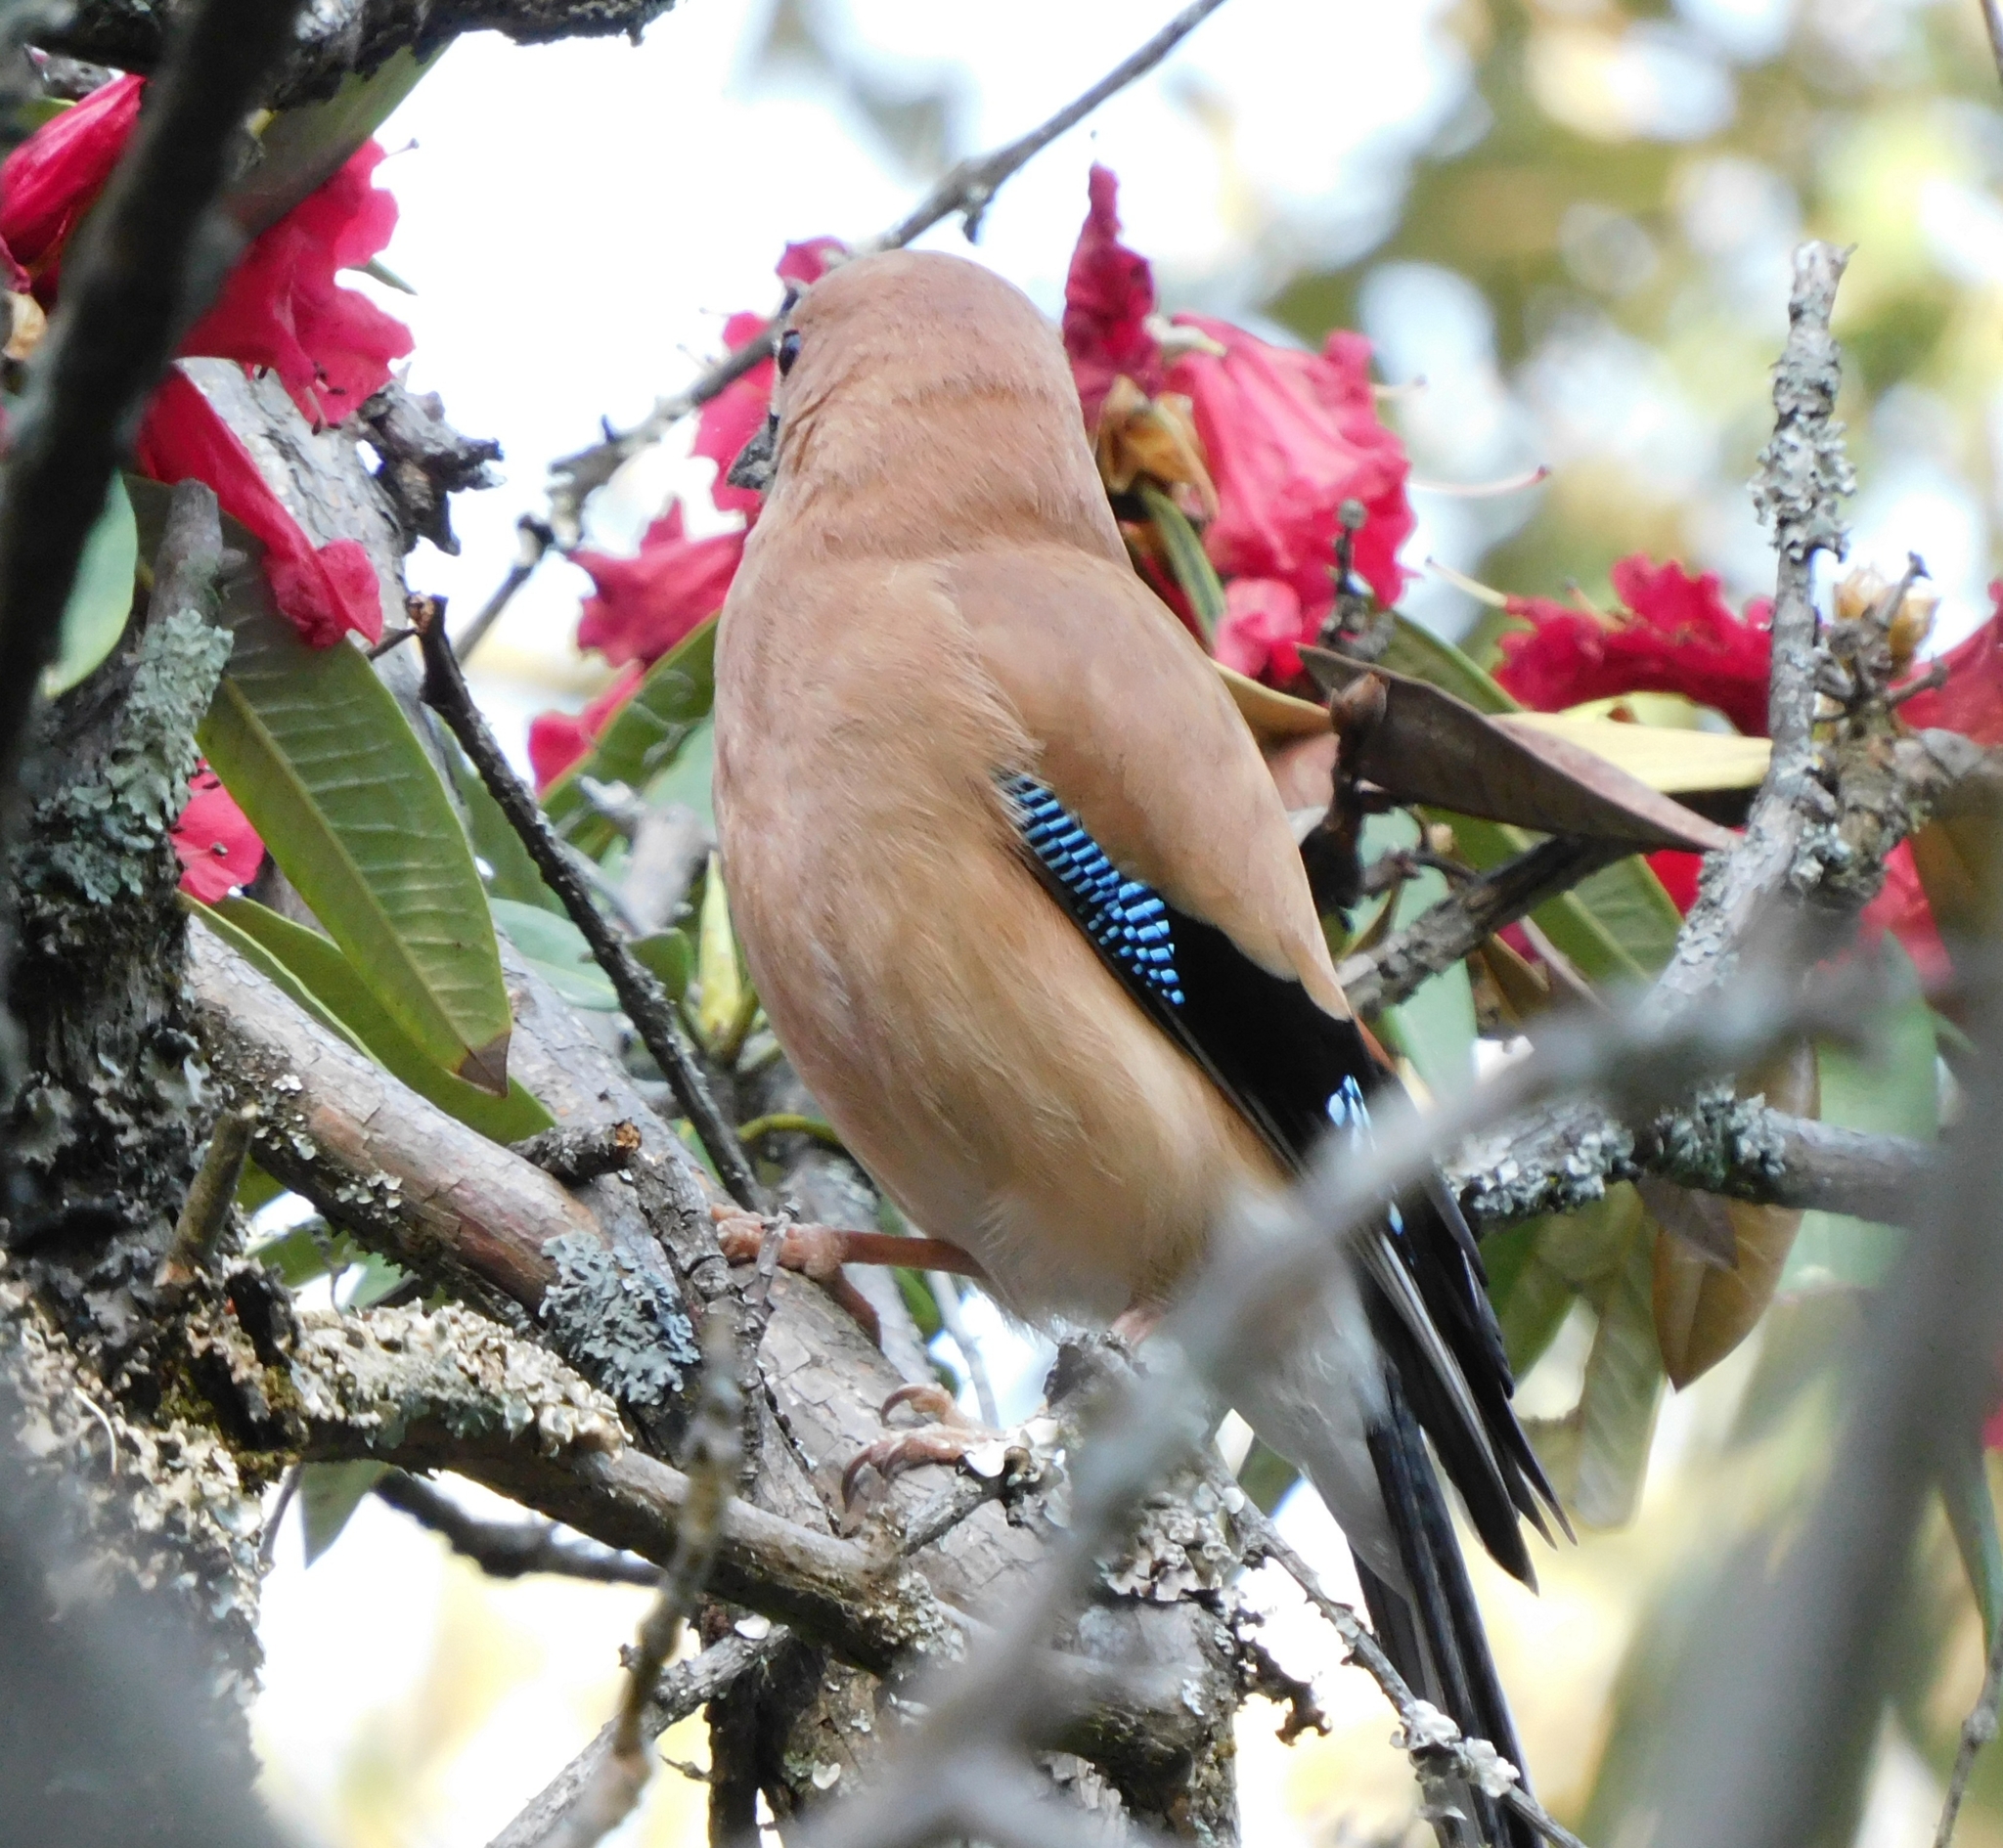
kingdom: Animalia
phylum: Chordata
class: Aves
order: Passeriformes
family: Corvidae
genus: Garrulus
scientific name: Garrulus glandarius
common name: Eurasian jay
